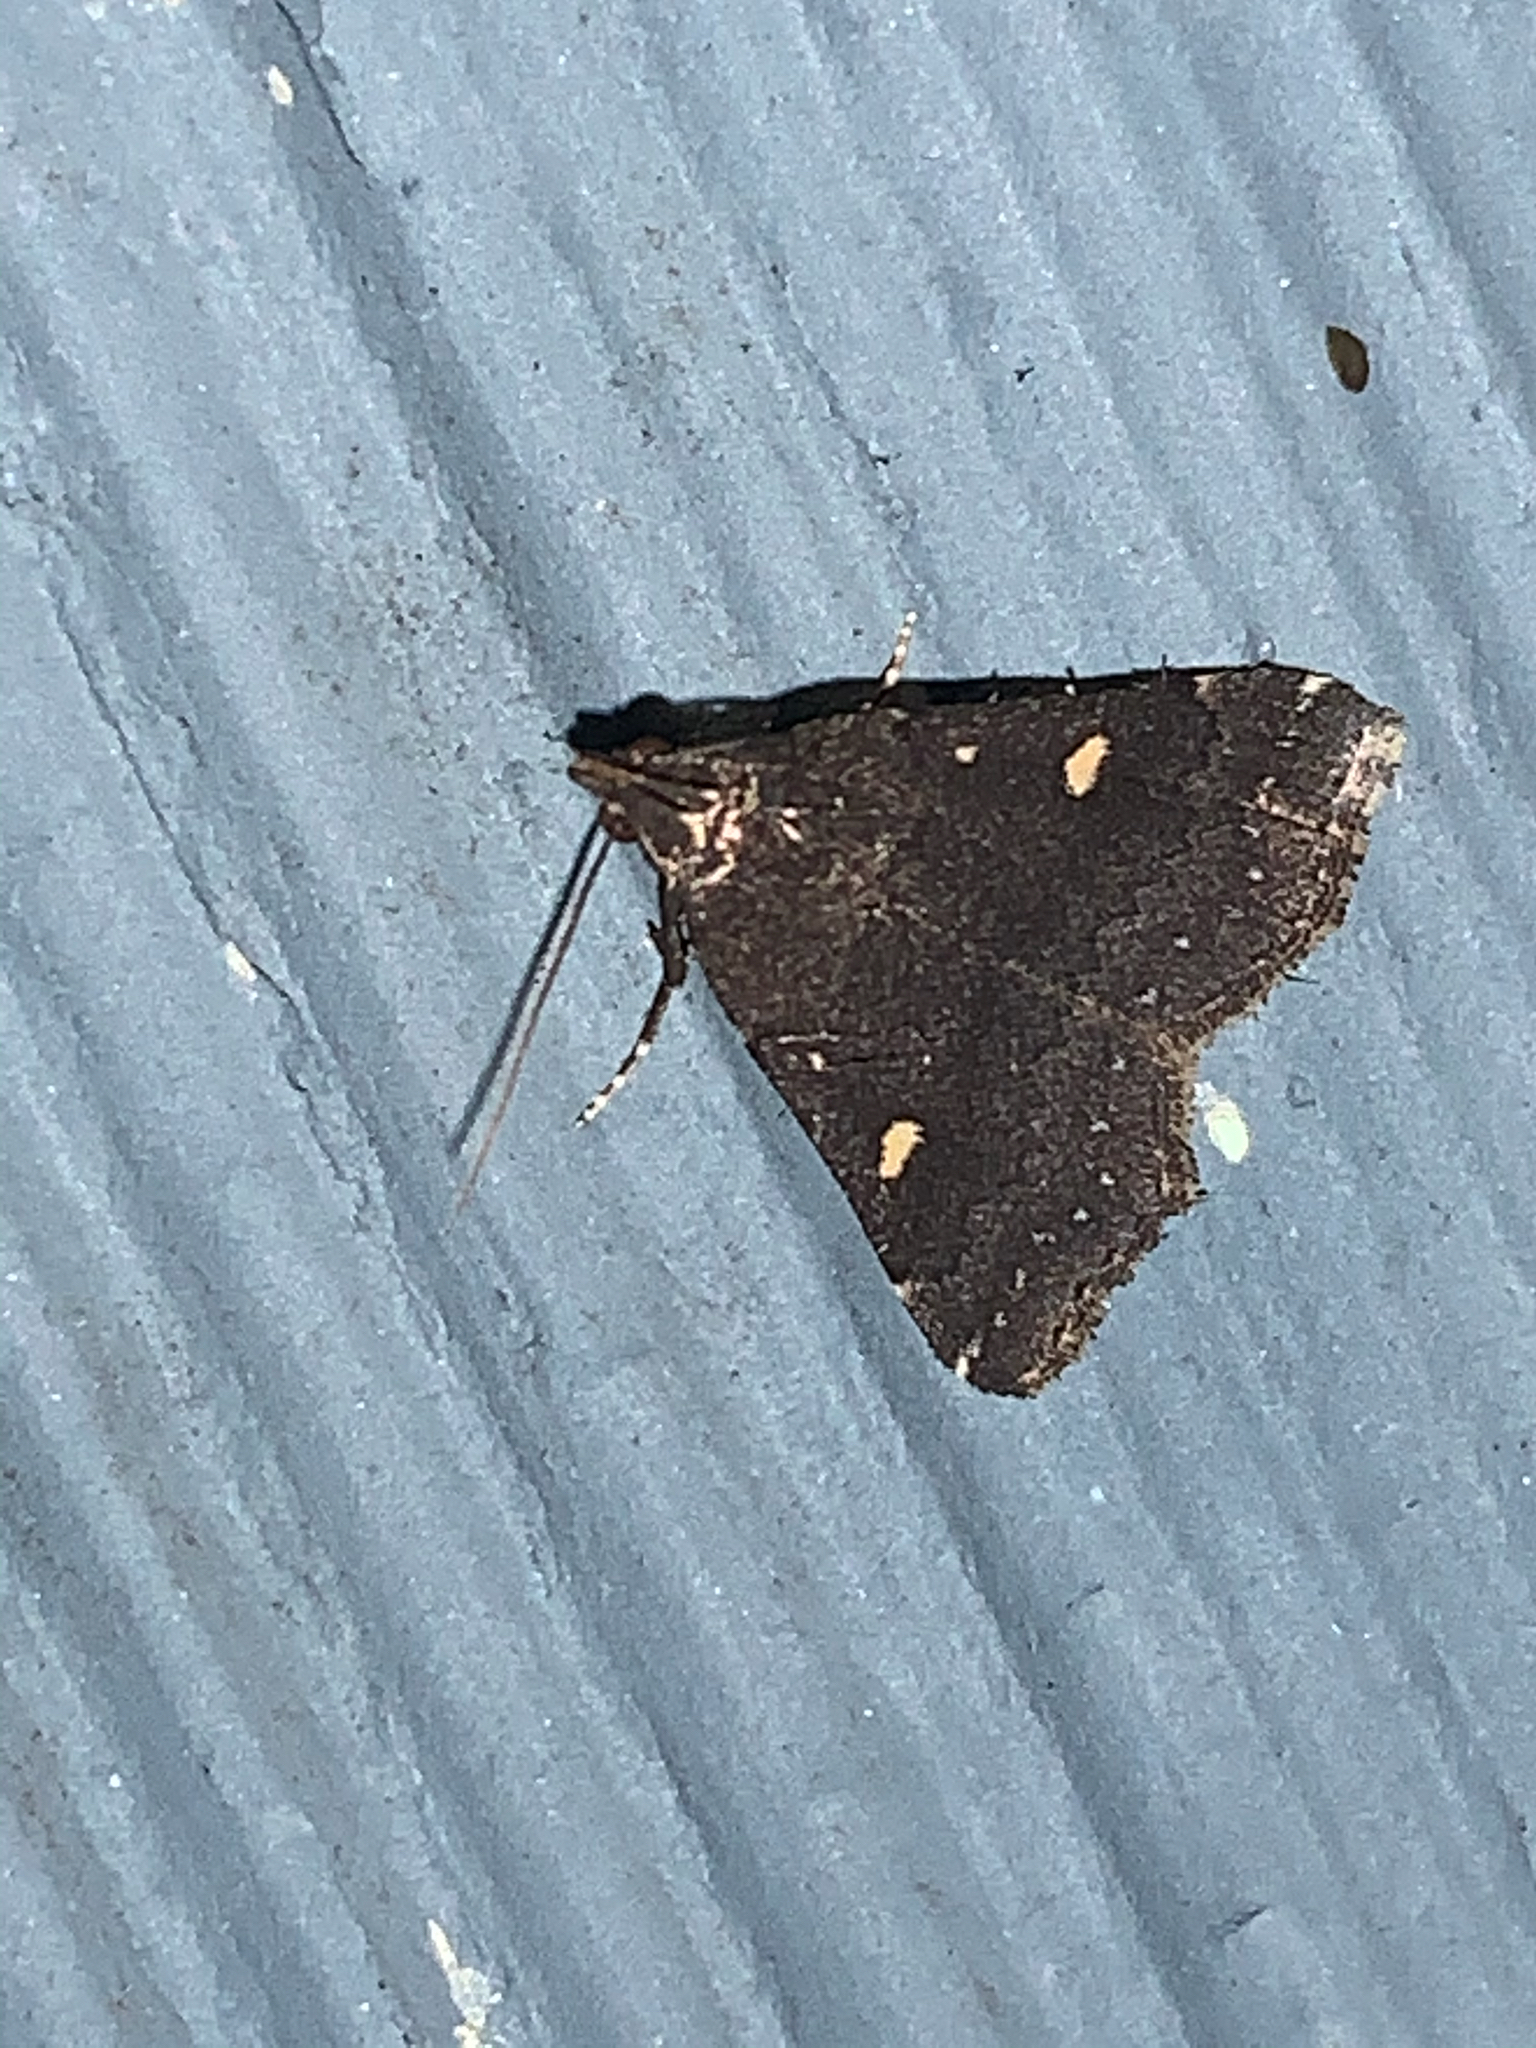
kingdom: Animalia
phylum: Arthropoda
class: Insecta
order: Lepidoptera
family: Erebidae
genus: Tetanolita
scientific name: Tetanolita mynesalis
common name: Smoky tetanolita moth
